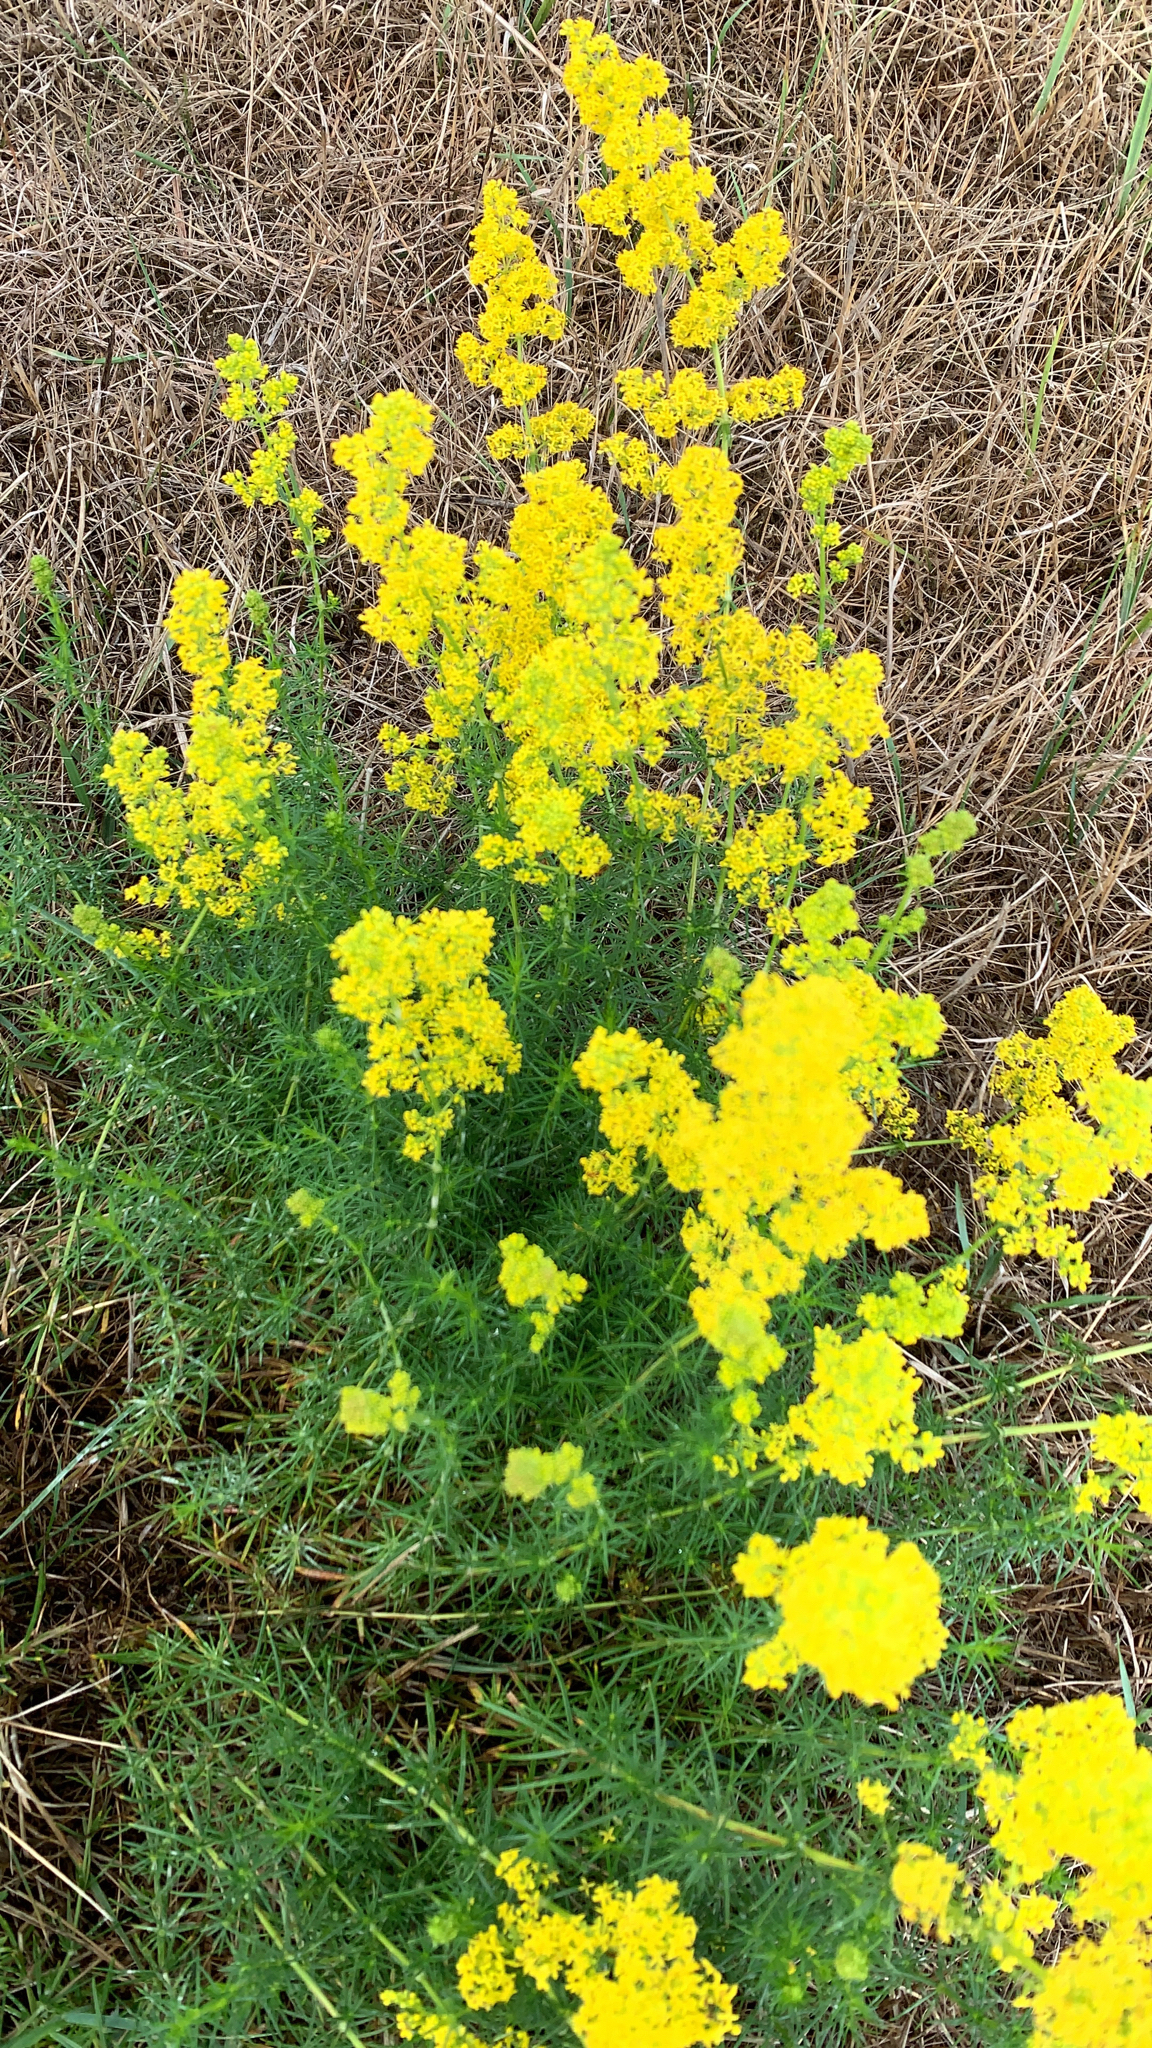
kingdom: Plantae
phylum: Tracheophyta
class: Magnoliopsida
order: Gentianales
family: Rubiaceae
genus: Galium
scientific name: Galium verum
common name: Lady's bedstraw
